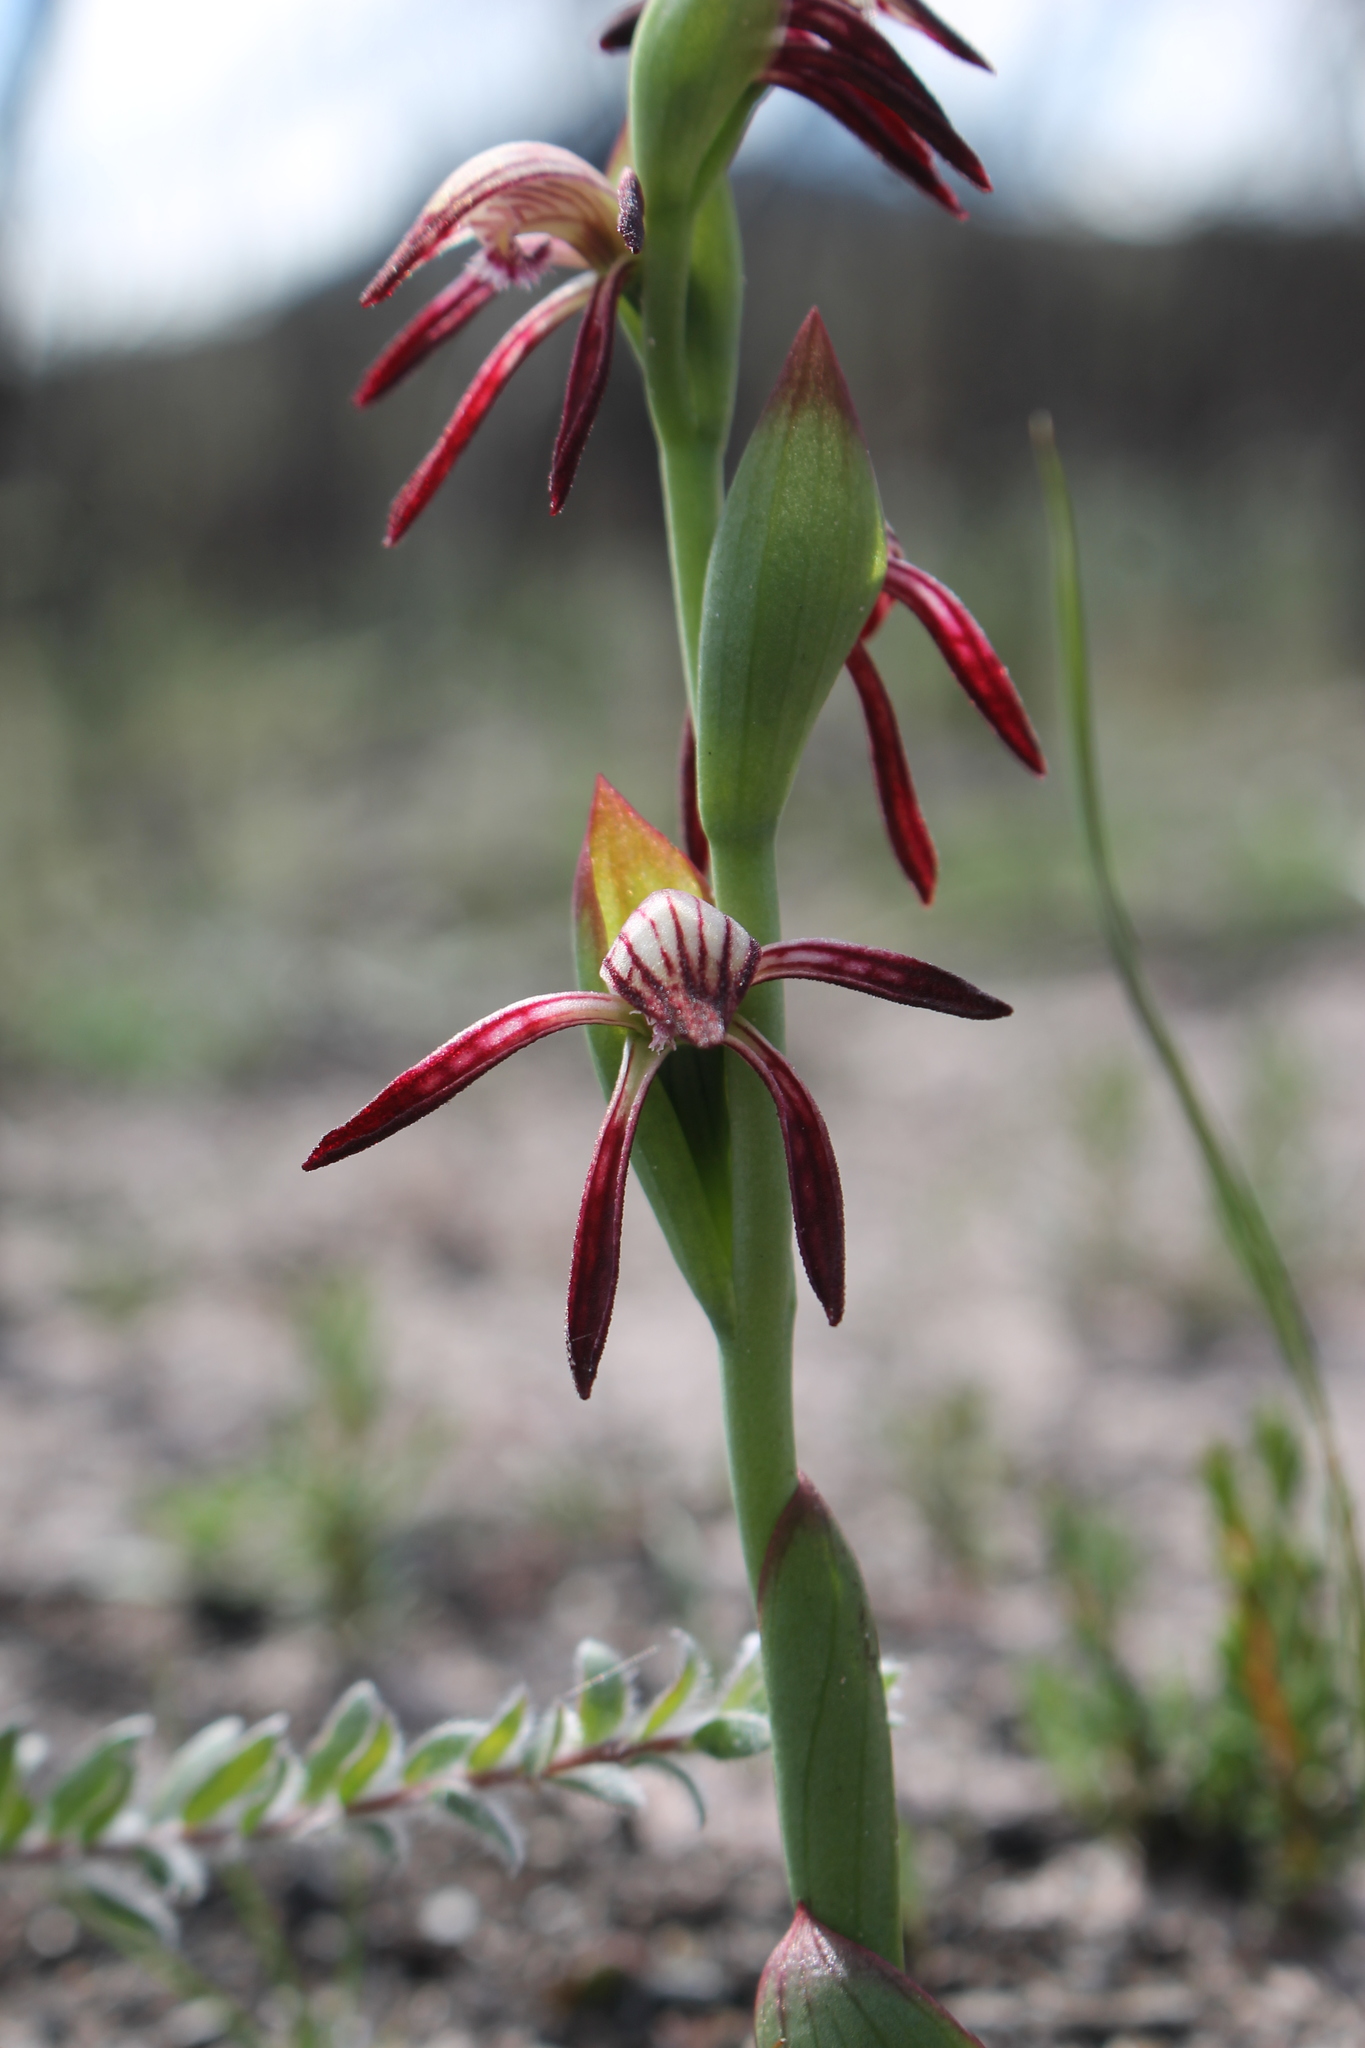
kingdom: Plantae
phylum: Tracheophyta
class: Liliopsida
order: Asparagales
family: Orchidaceae
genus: Pyrorchis
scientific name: Pyrorchis nigricans
